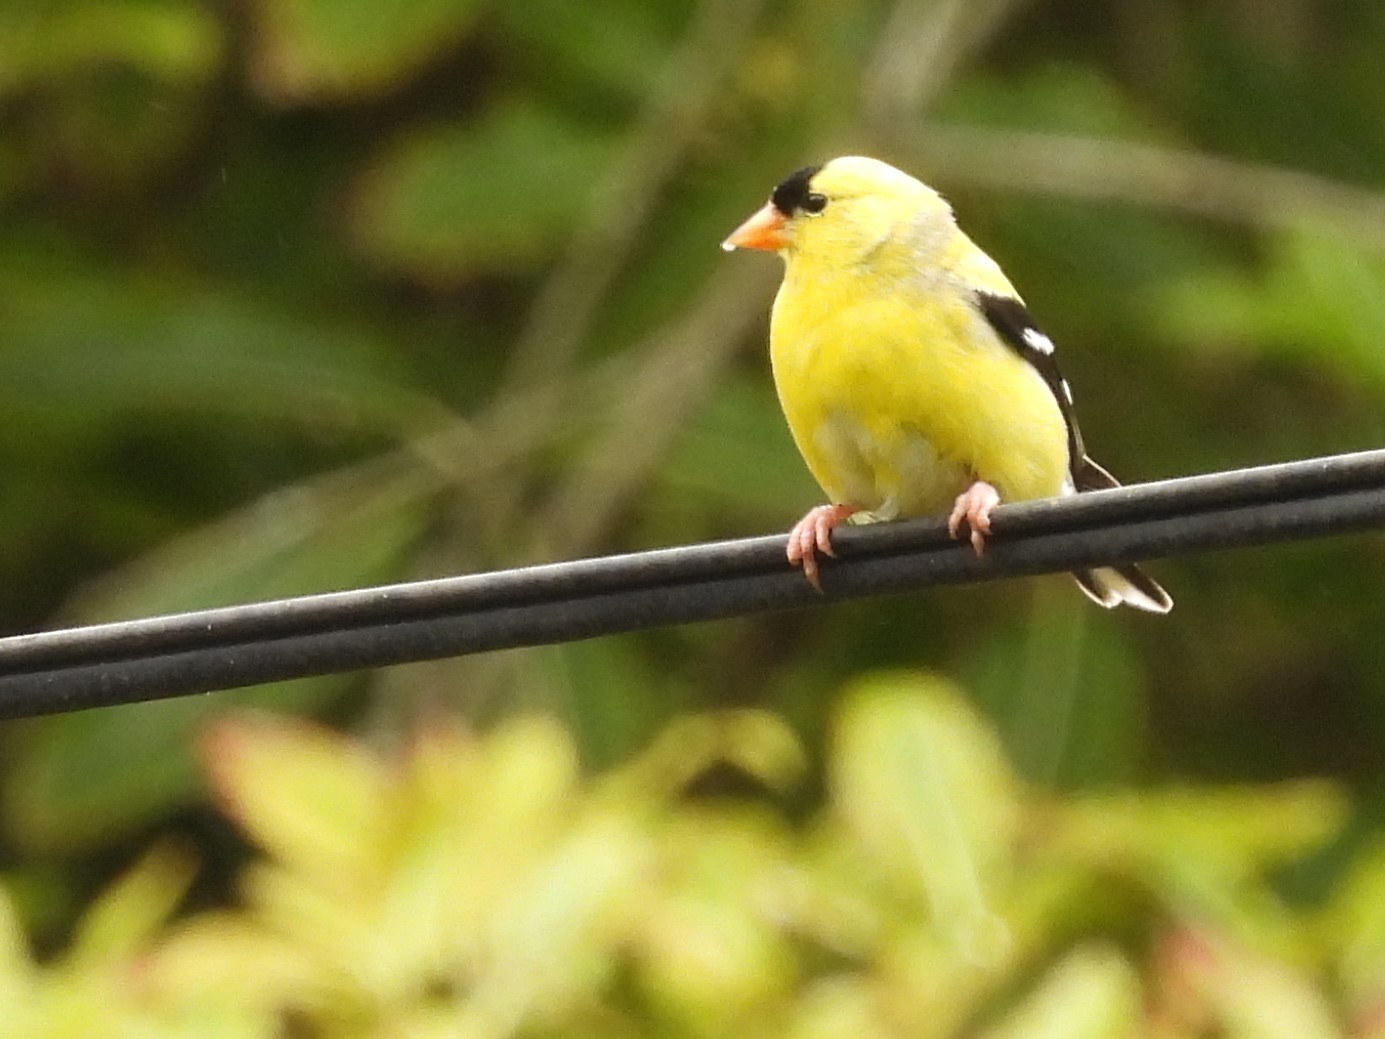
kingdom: Animalia
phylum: Chordata
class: Aves
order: Passeriformes
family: Fringillidae
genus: Spinus
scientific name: Spinus tristis
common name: American goldfinch
